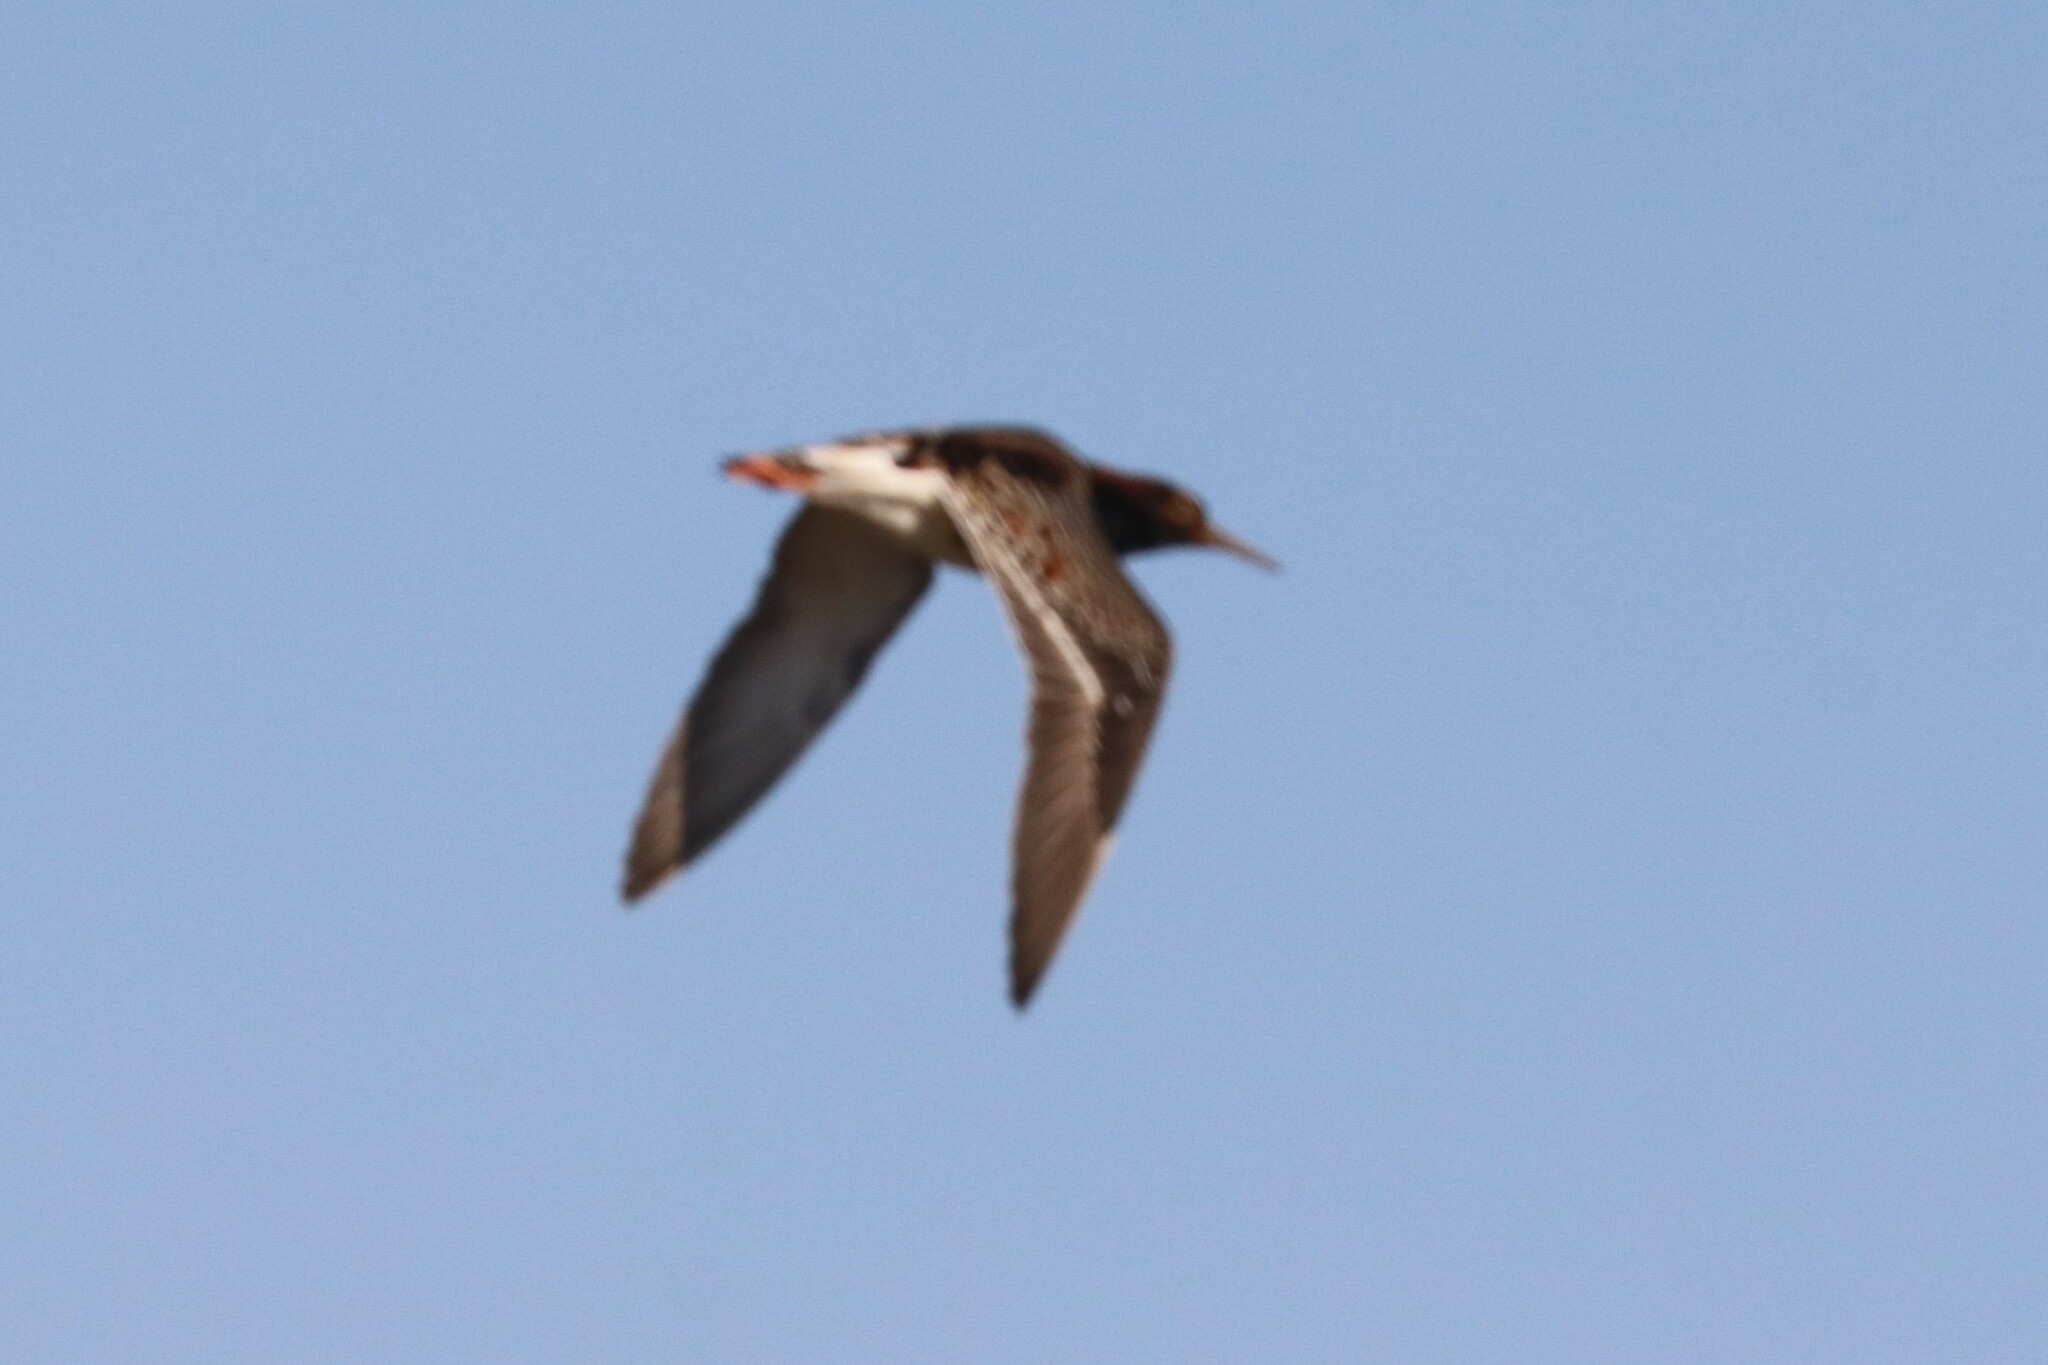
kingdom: Animalia
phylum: Chordata
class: Aves
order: Charadriiformes
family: Scolopacidae
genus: Calidris
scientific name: Calidris pugnax
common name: Ruff
